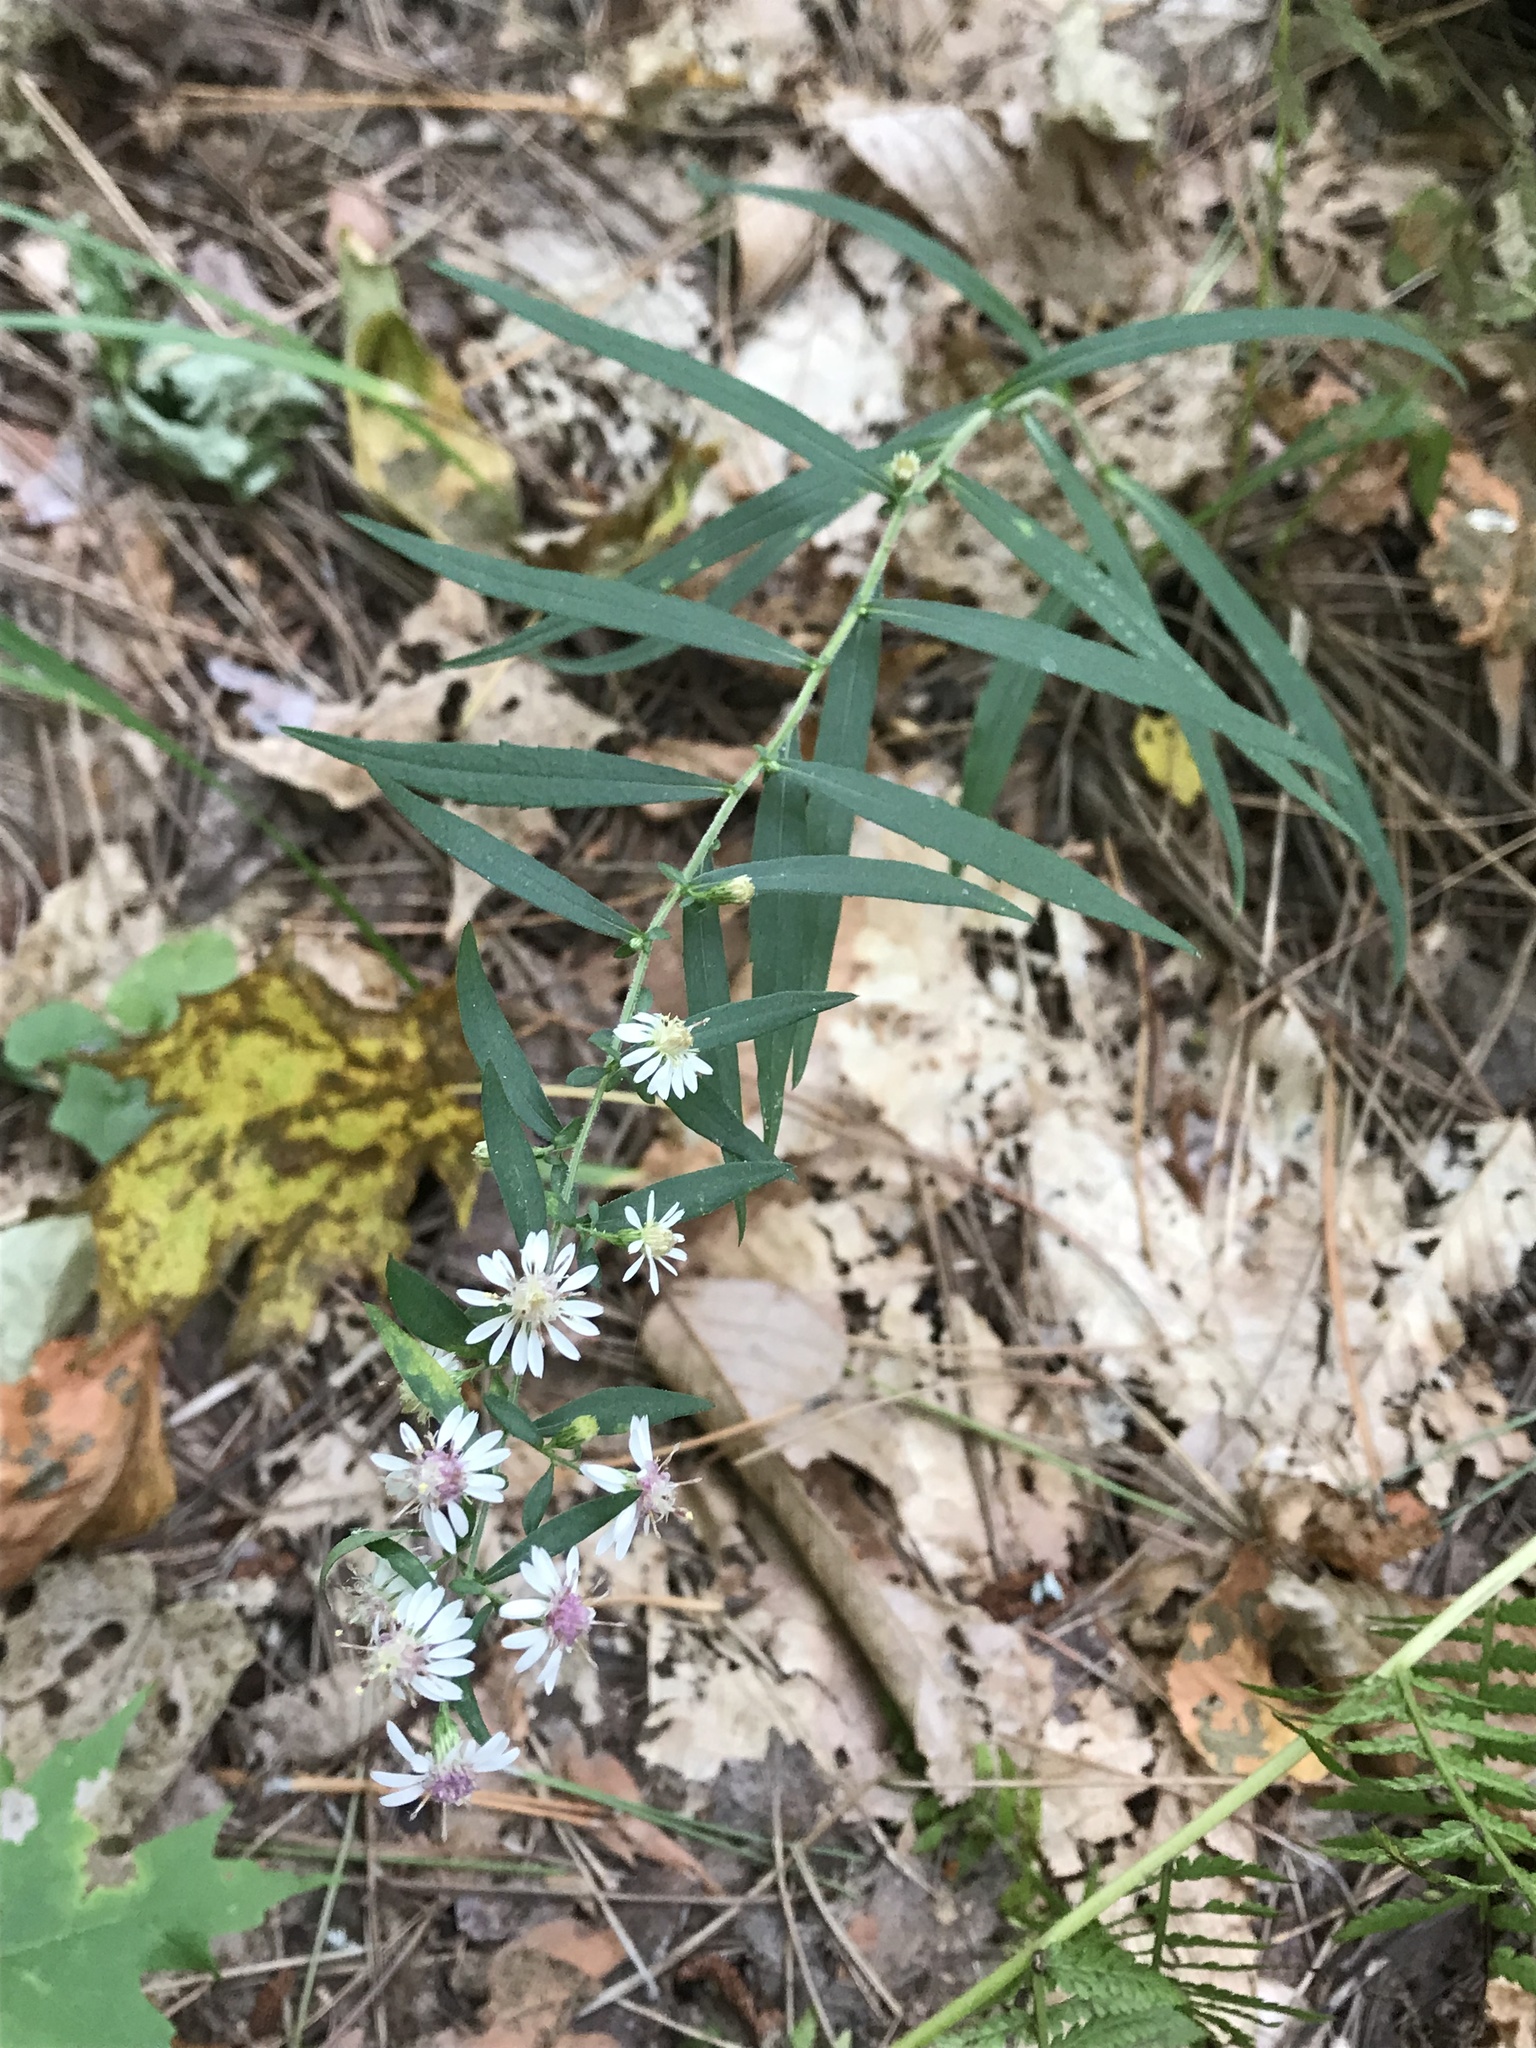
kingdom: Plantae
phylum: Tracheophyta
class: Magnoliopsida
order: Asterales
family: Asteraceae
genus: Symphyotrichum
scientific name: Symphyotrichum lateriflorum
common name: Calico aster
